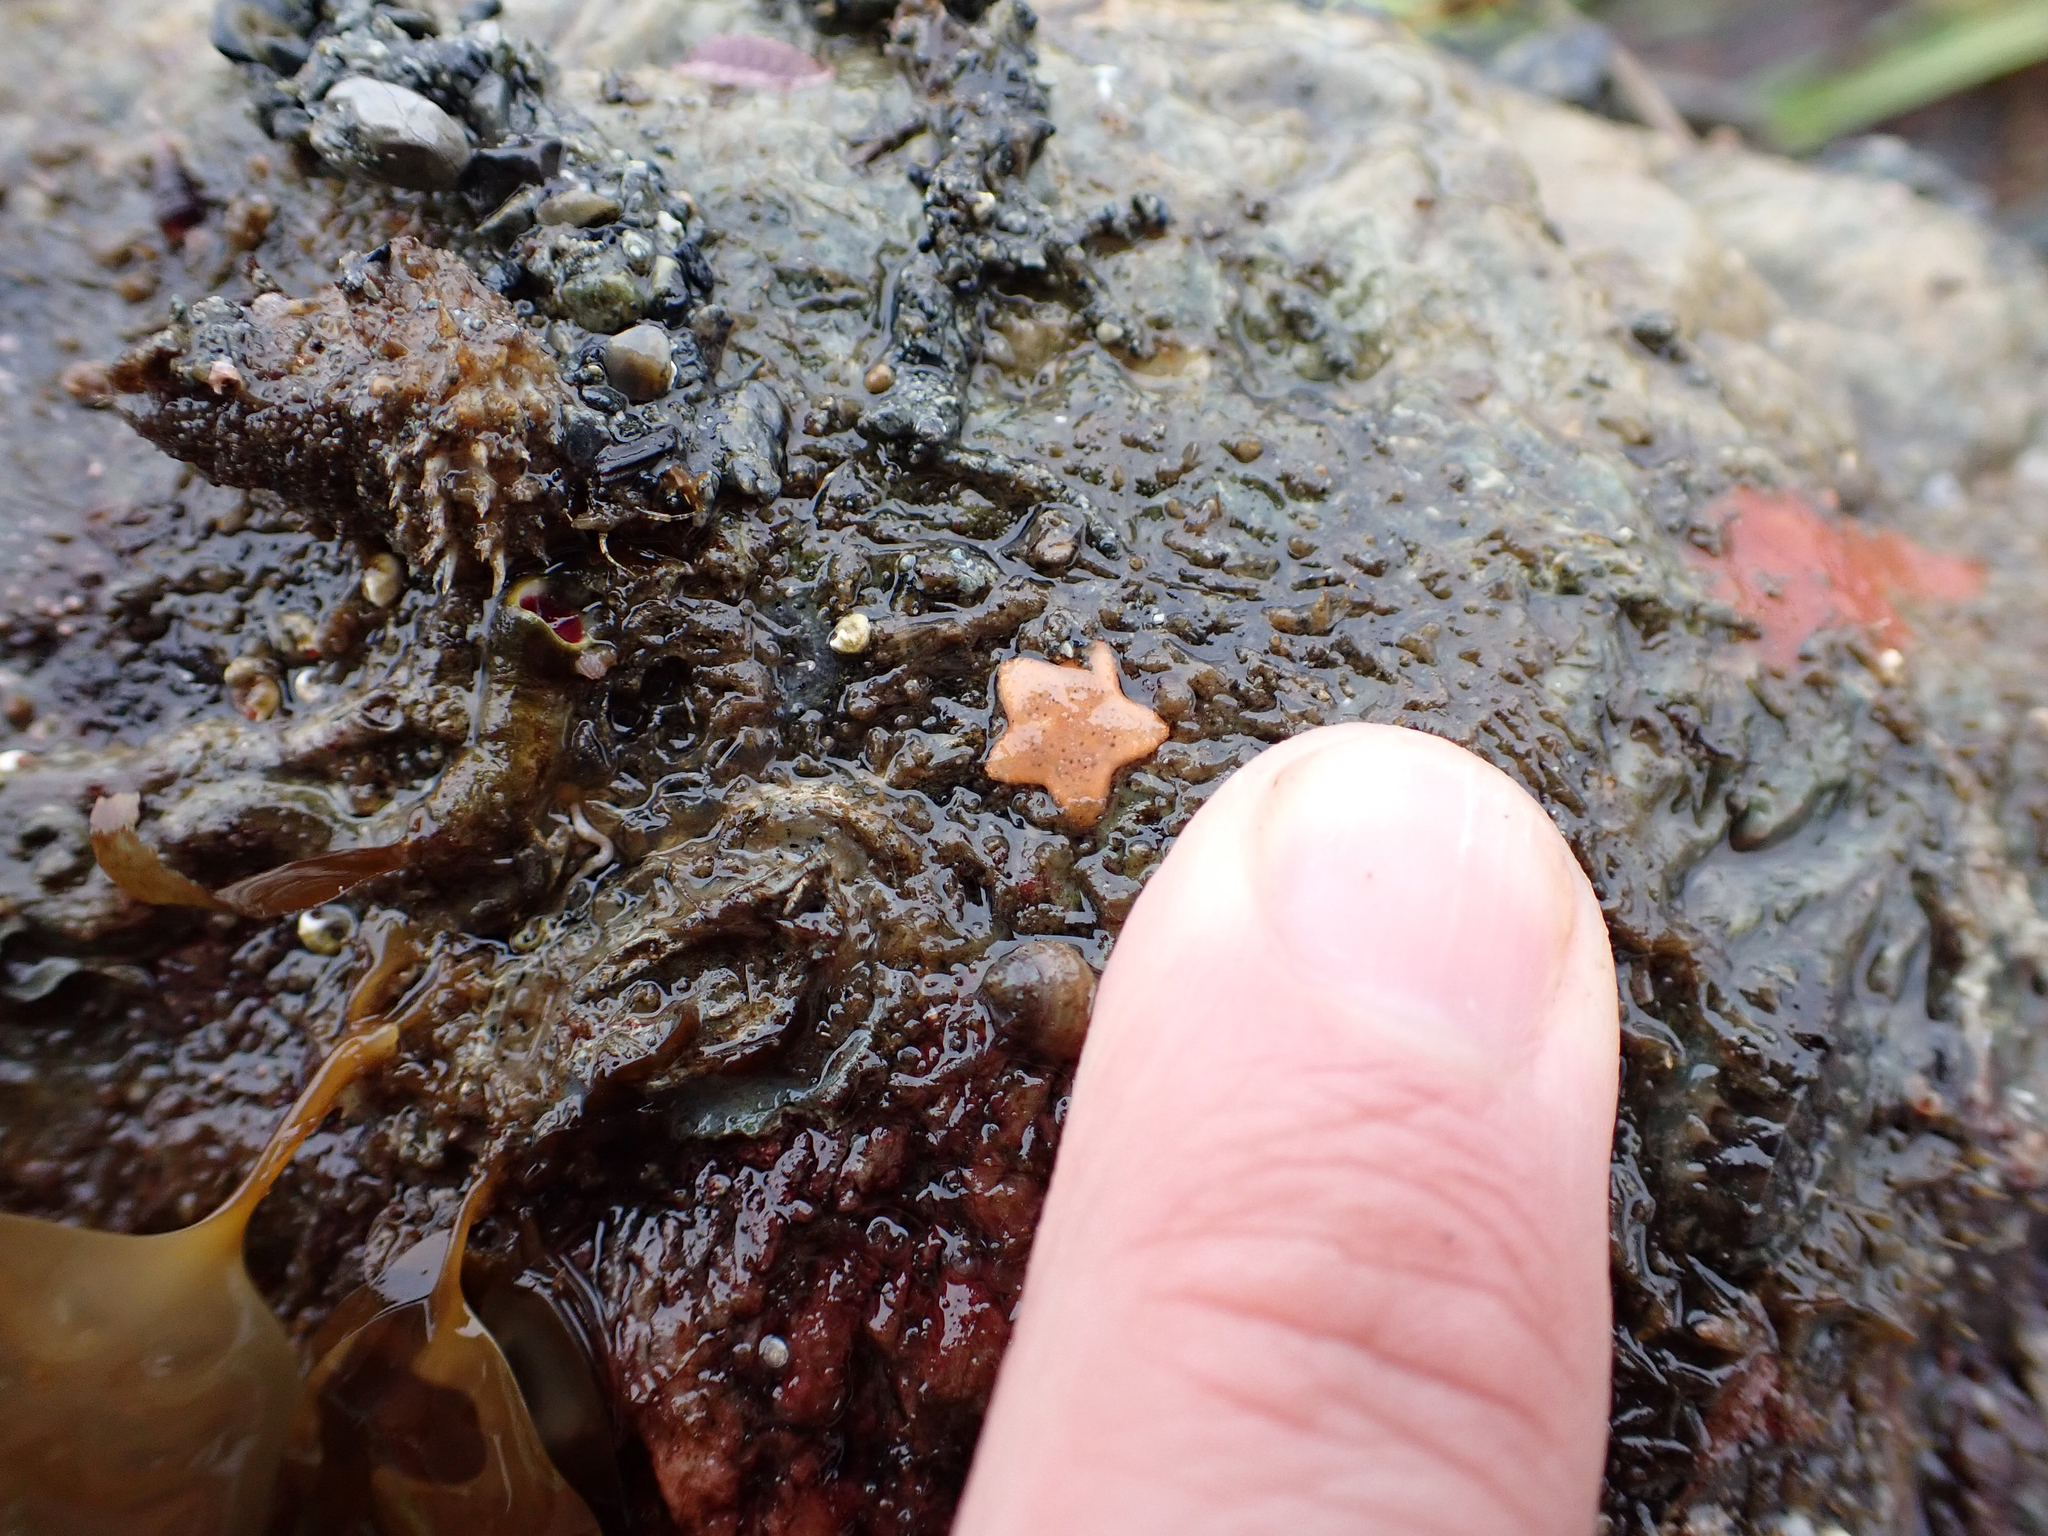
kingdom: Animalia
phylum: Echinodermata
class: Asteroidea
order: Valvatida
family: Asteropseidae
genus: Dermasterias
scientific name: Dermasterias imbricata
